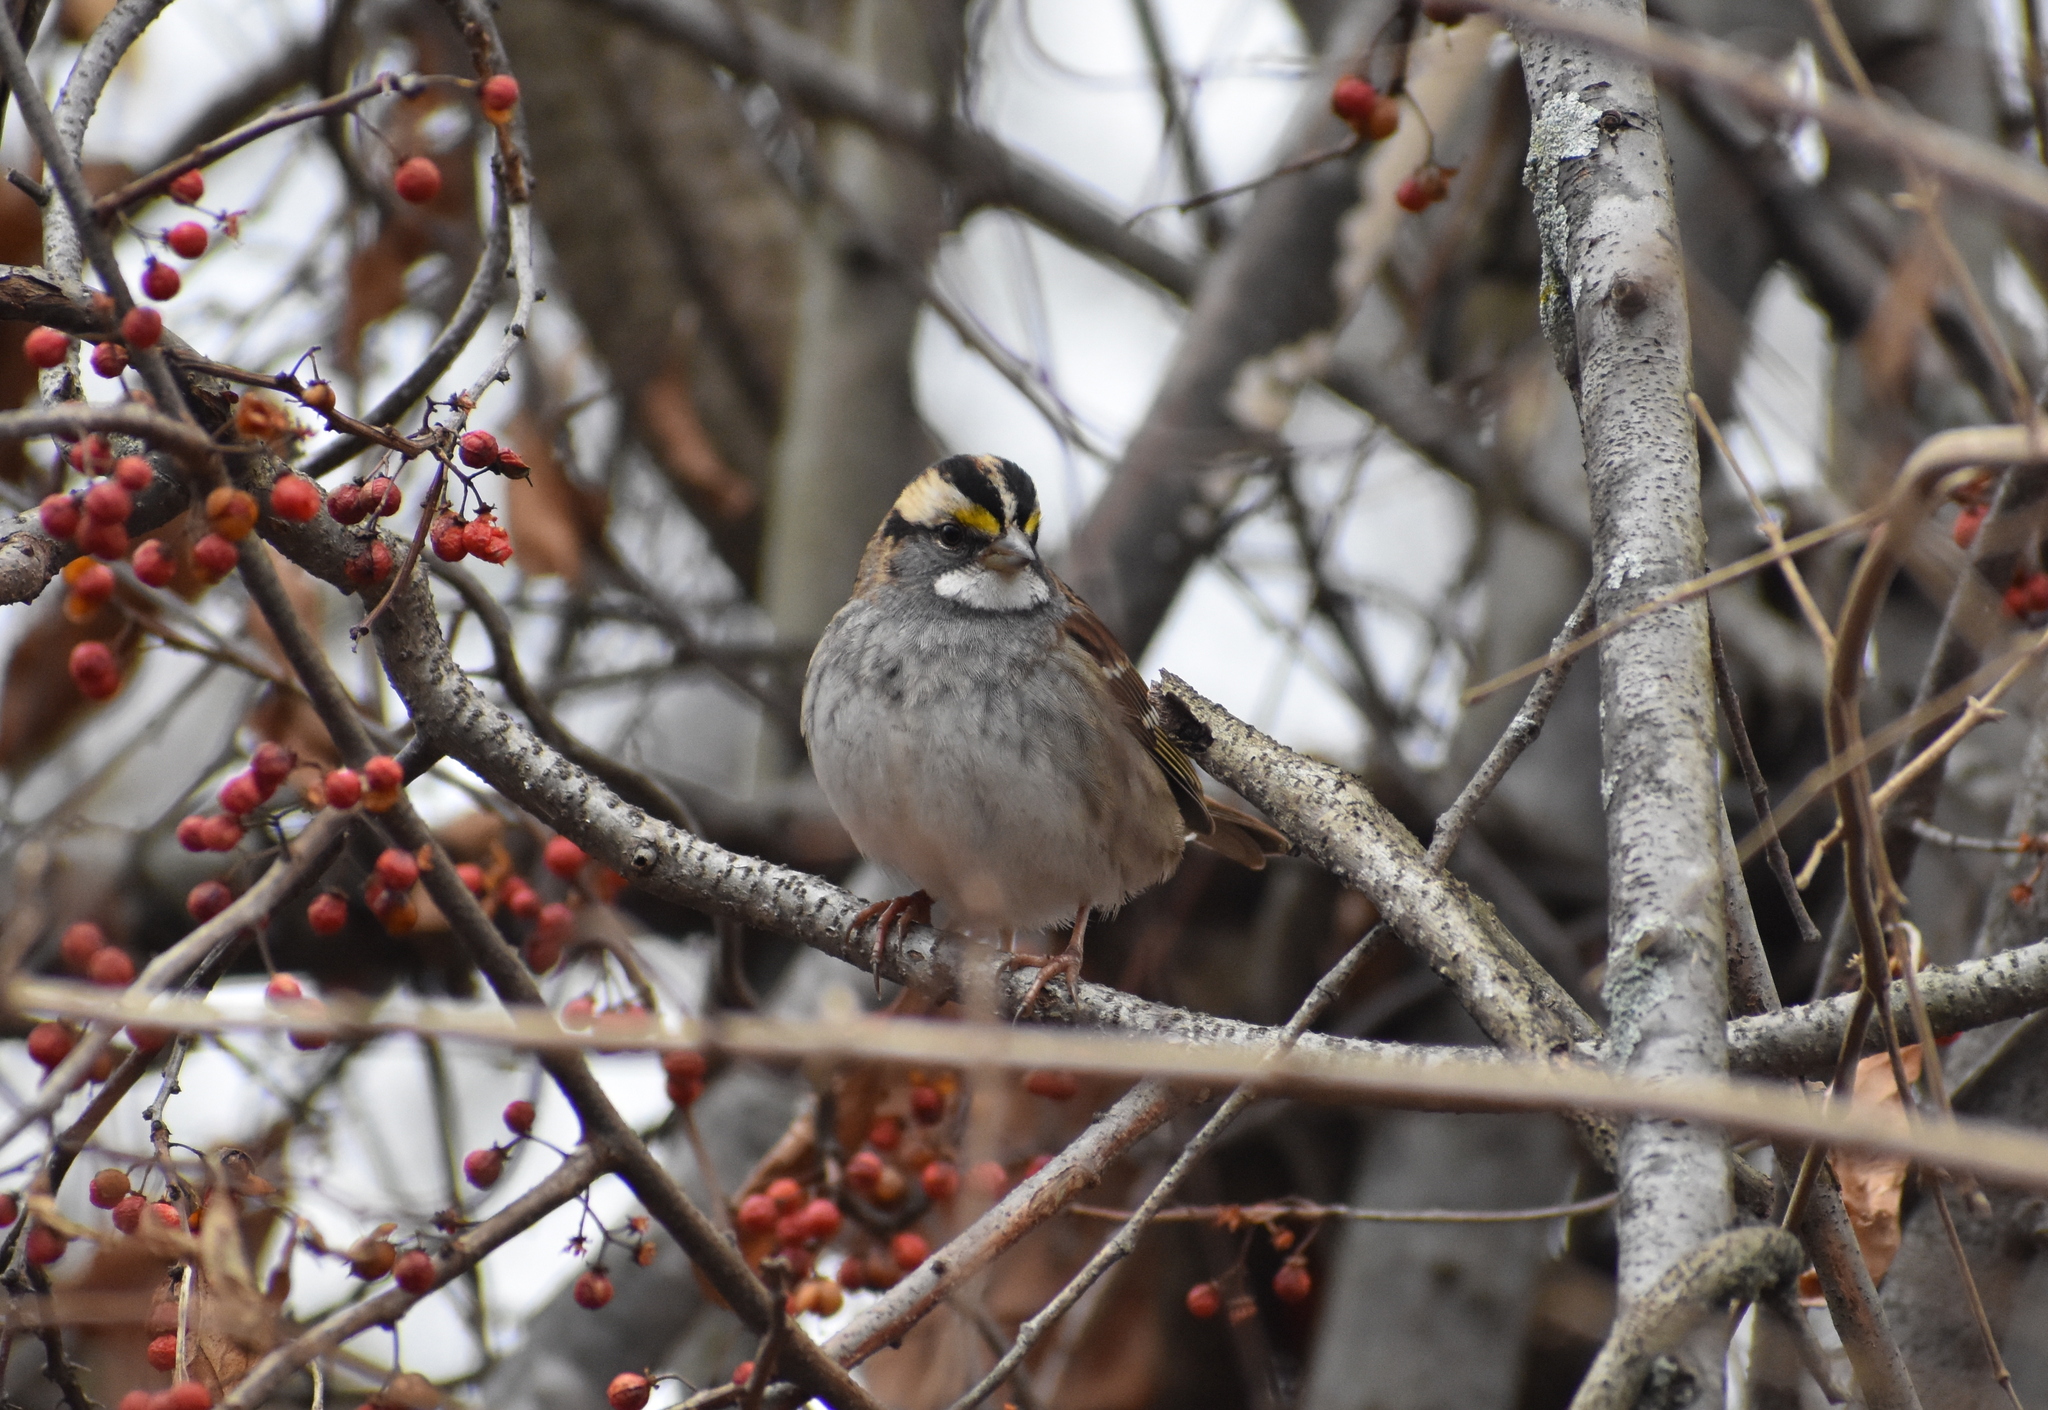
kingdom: Animalia
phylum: Chordata
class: Aves
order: Passeriformes
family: Passerellidae
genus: Zonotrichia
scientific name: Zonotrichia albicollis
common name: White-throated sparrow
